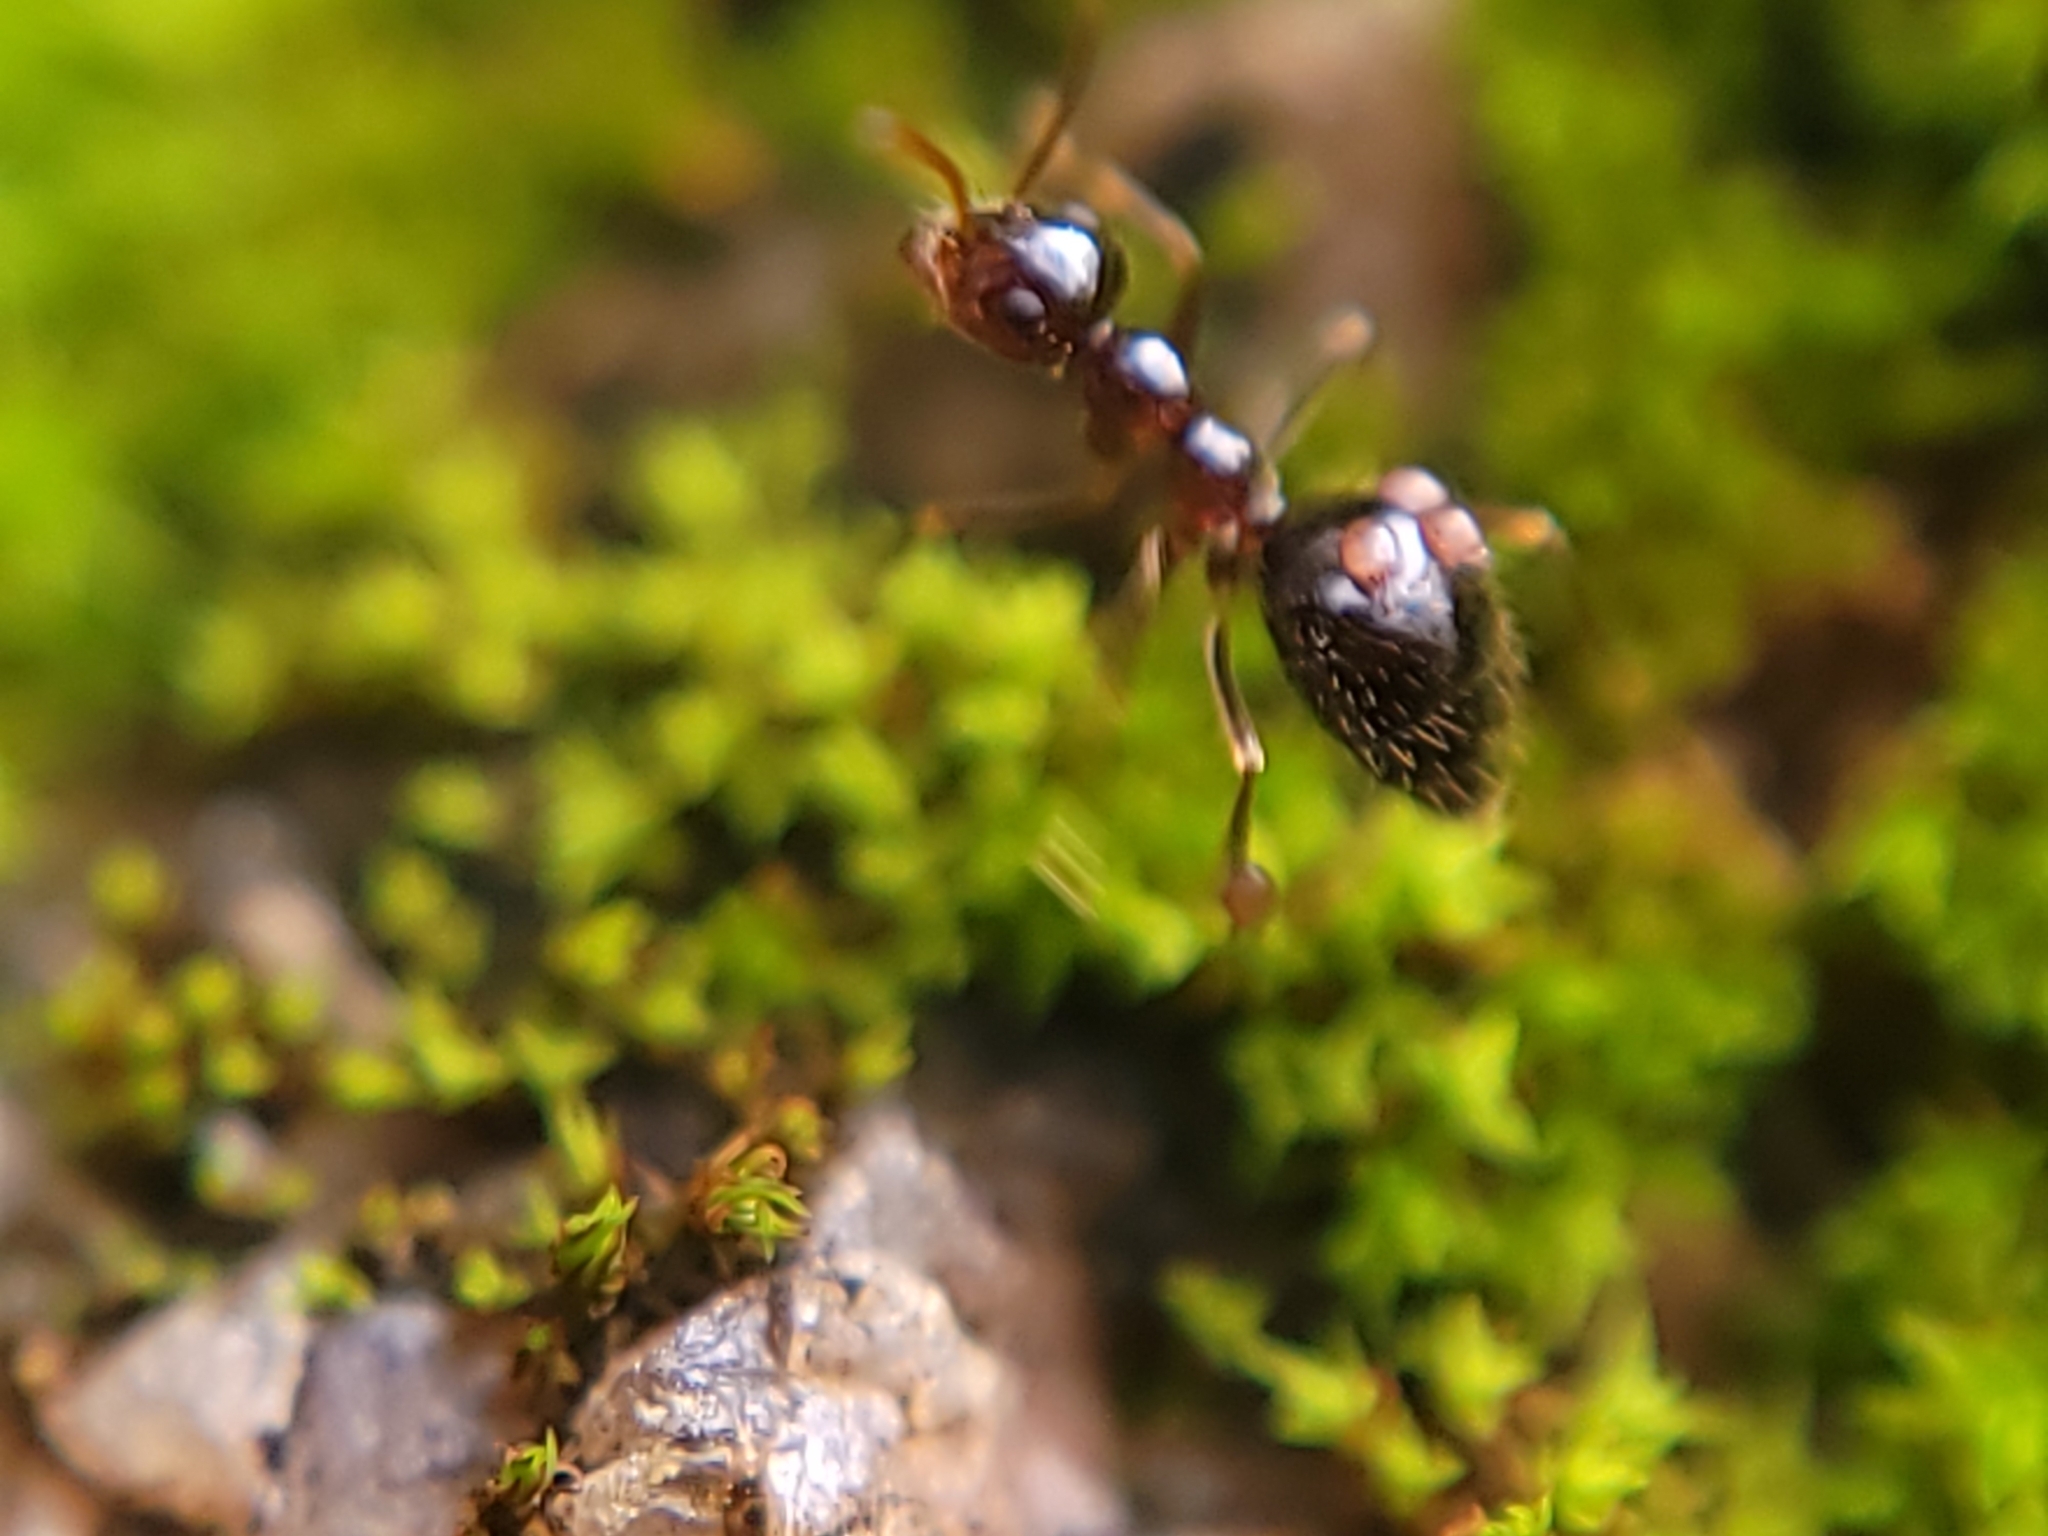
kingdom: Animalia
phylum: Arthropoda
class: Insecta
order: Hymenoptera
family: Formicidae
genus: Prenolepis
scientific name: Prenolepis imparis
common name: Small honey ant
